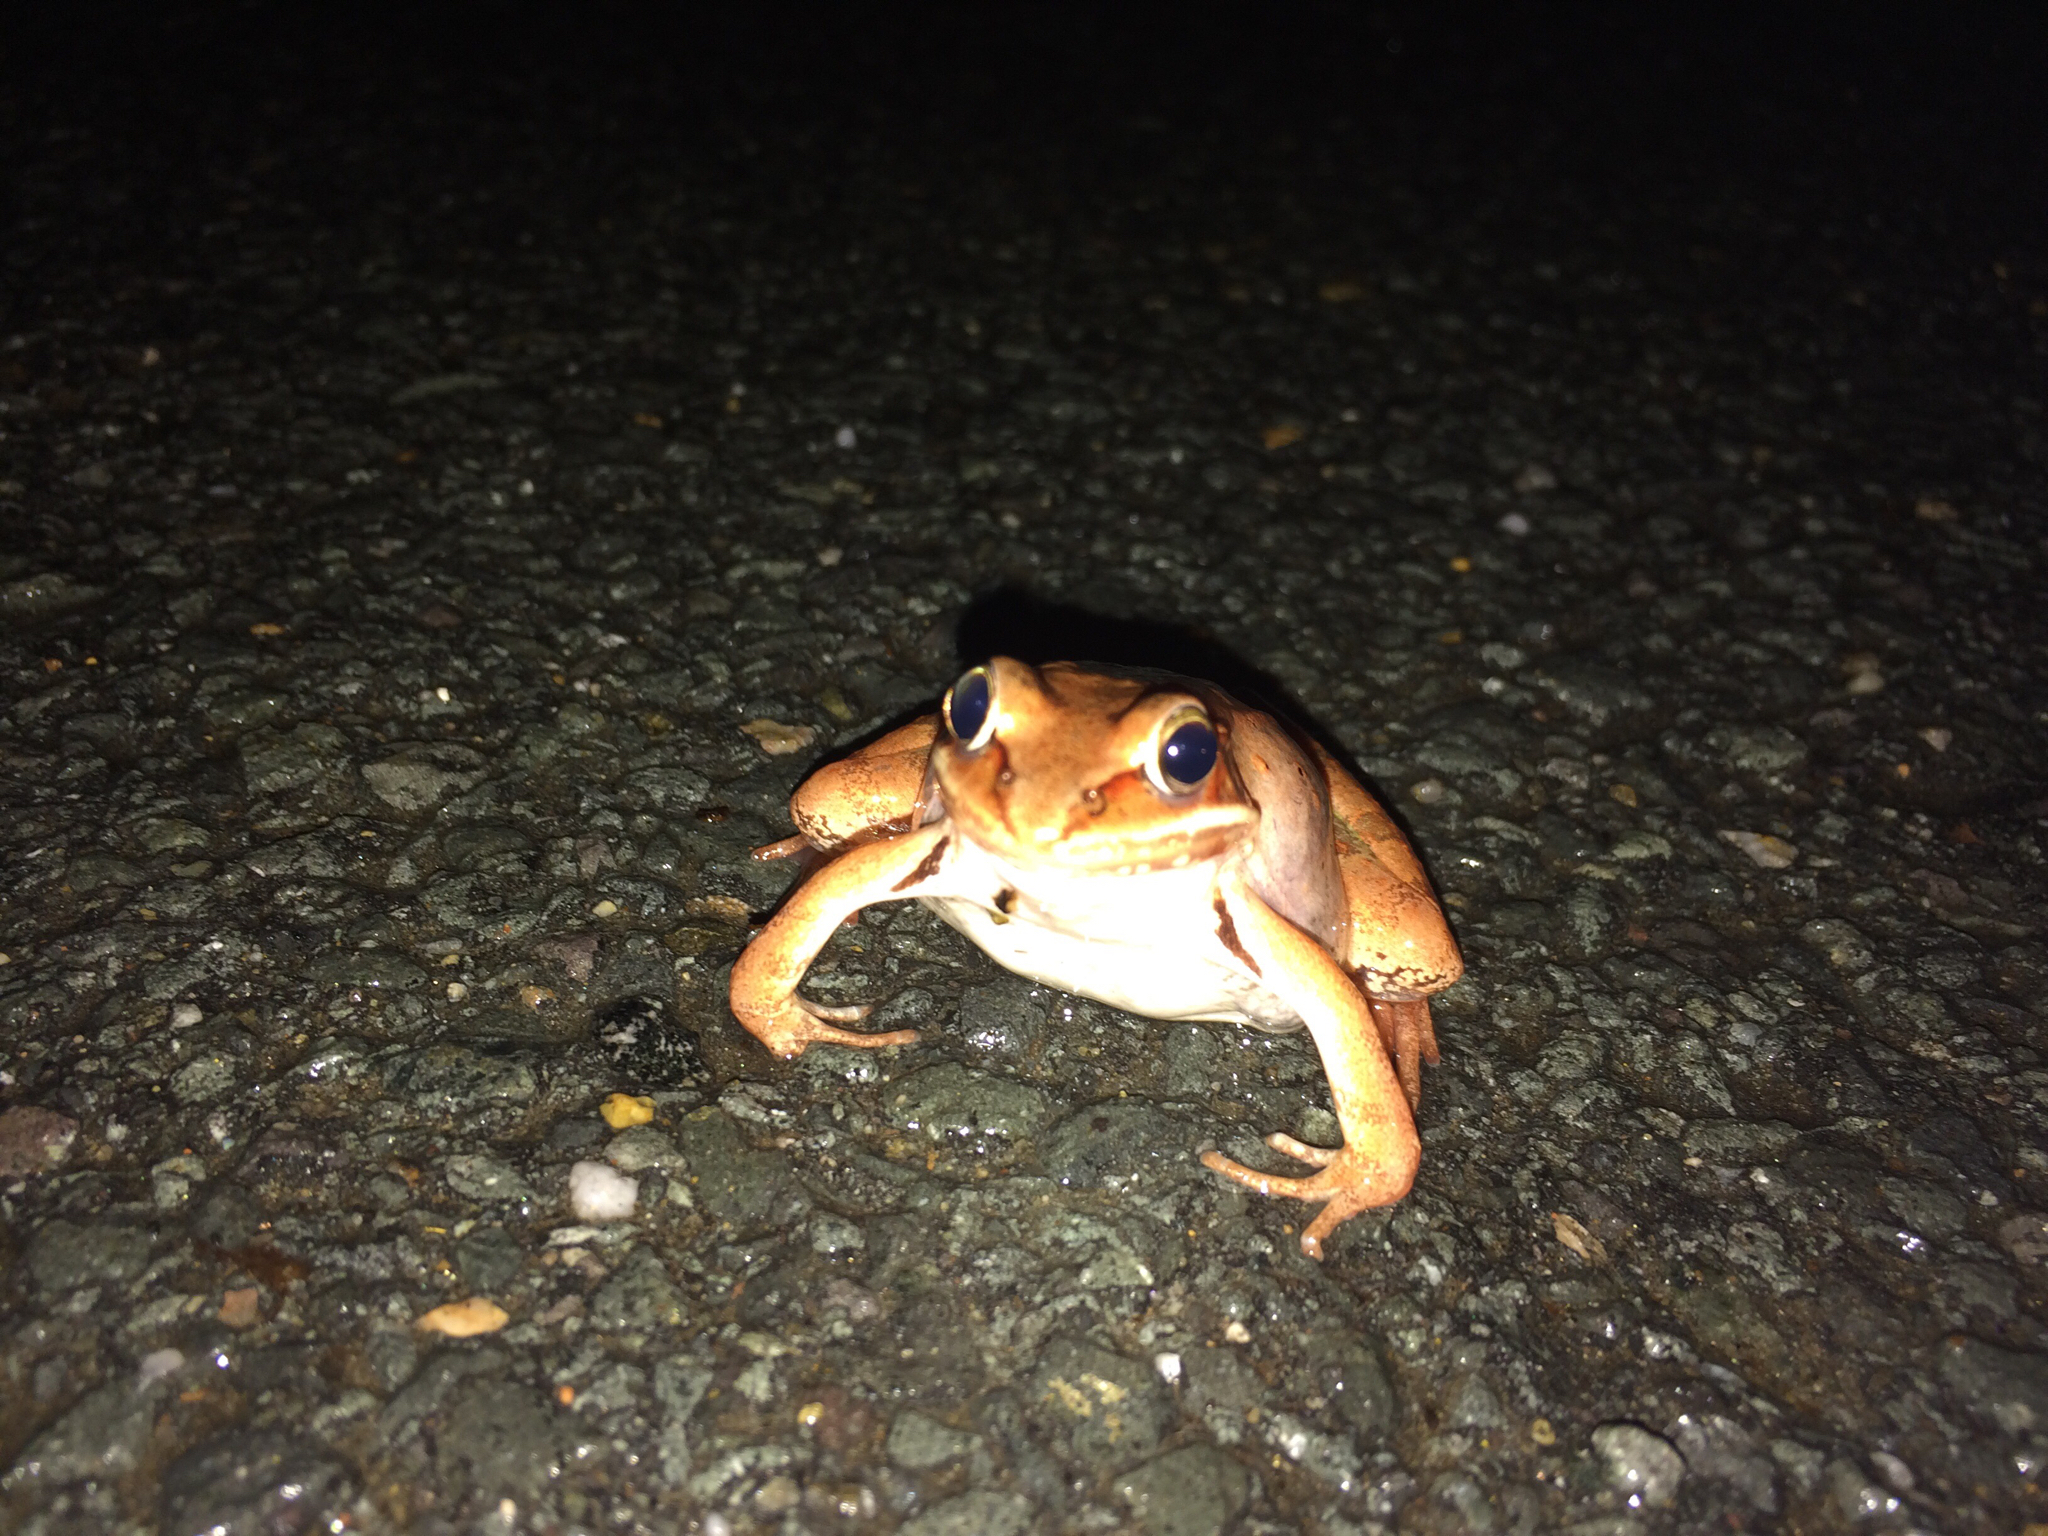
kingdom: Animalia
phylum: Chordata
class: Amphibia
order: Anura
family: Ranidae
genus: Lithobates
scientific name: Lithobates sylvaticus
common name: Wood frog
